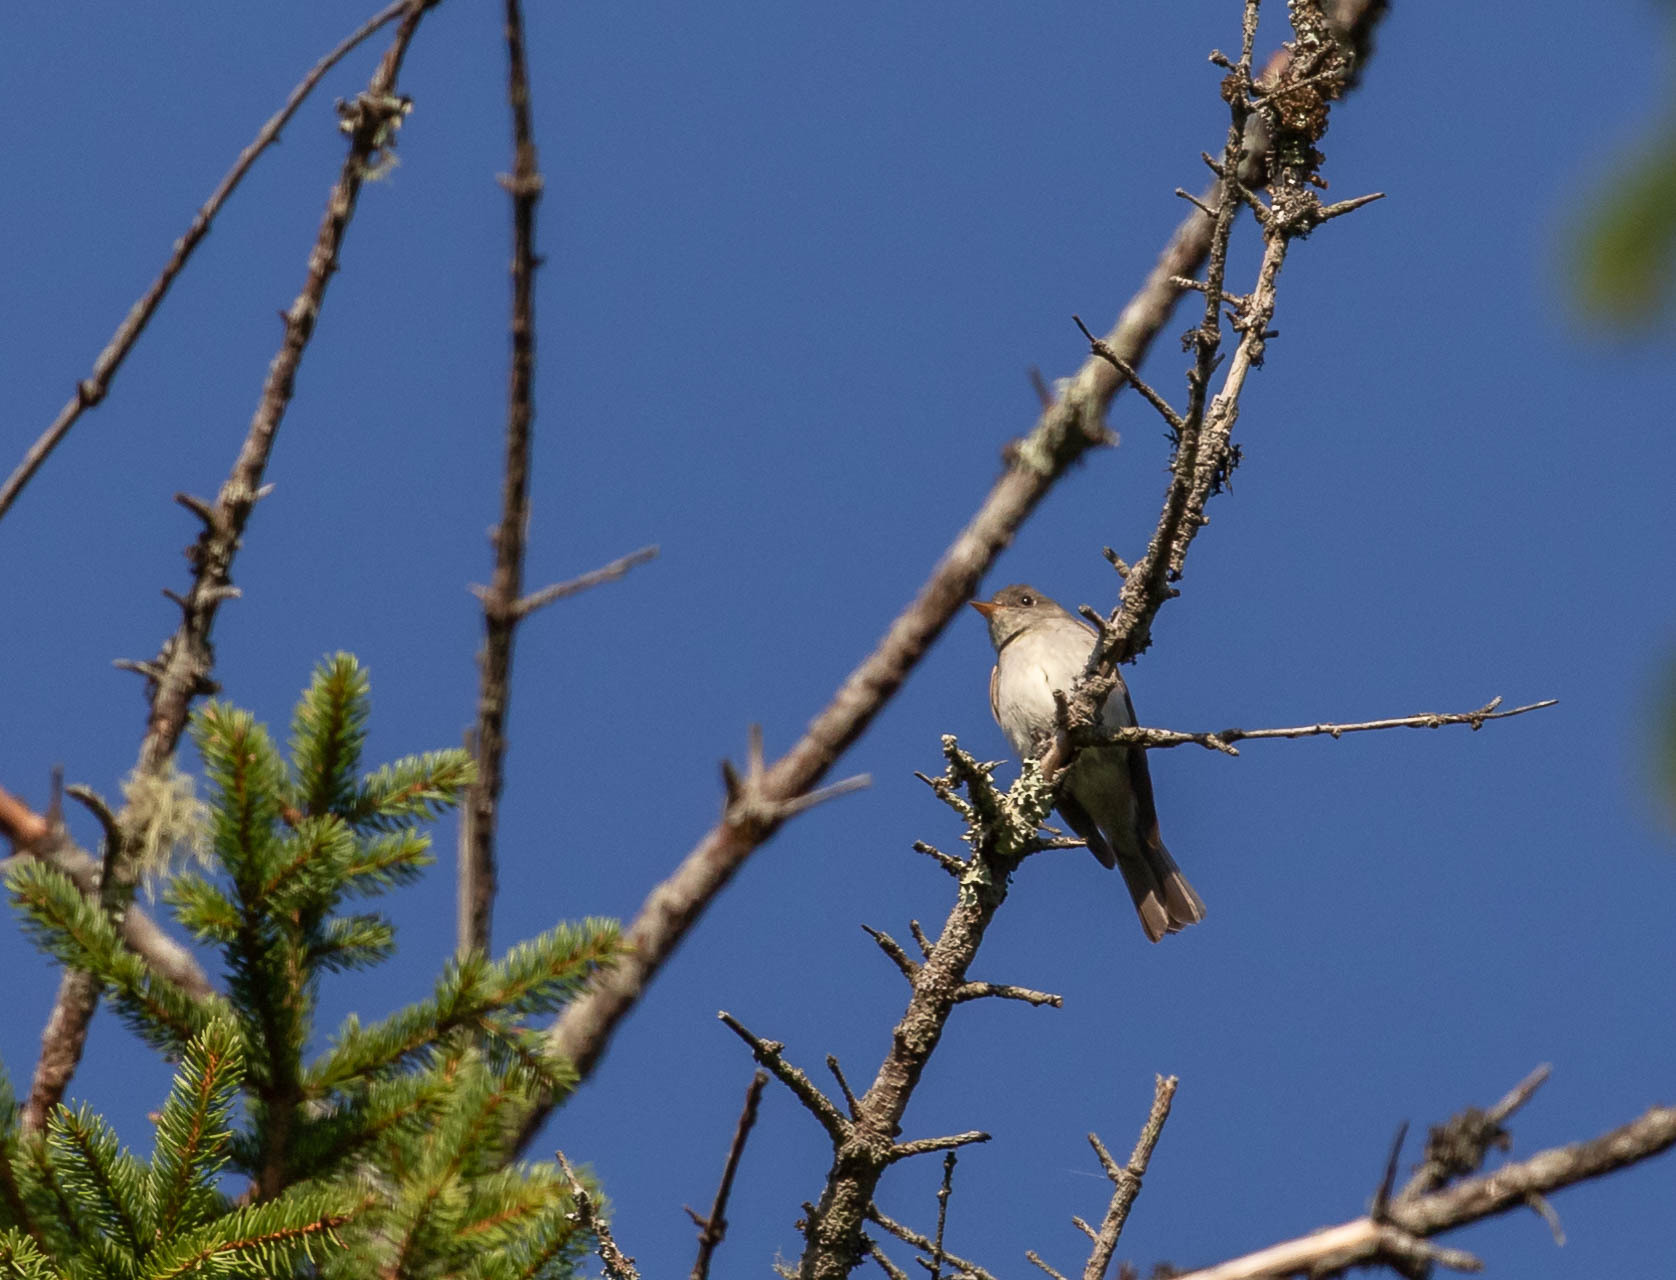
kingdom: Animalia
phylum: Chordata
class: Aves
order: Passeriformes
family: Tyrannidae
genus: Contopus
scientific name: Contopus virens
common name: Eastern wood-pewee
